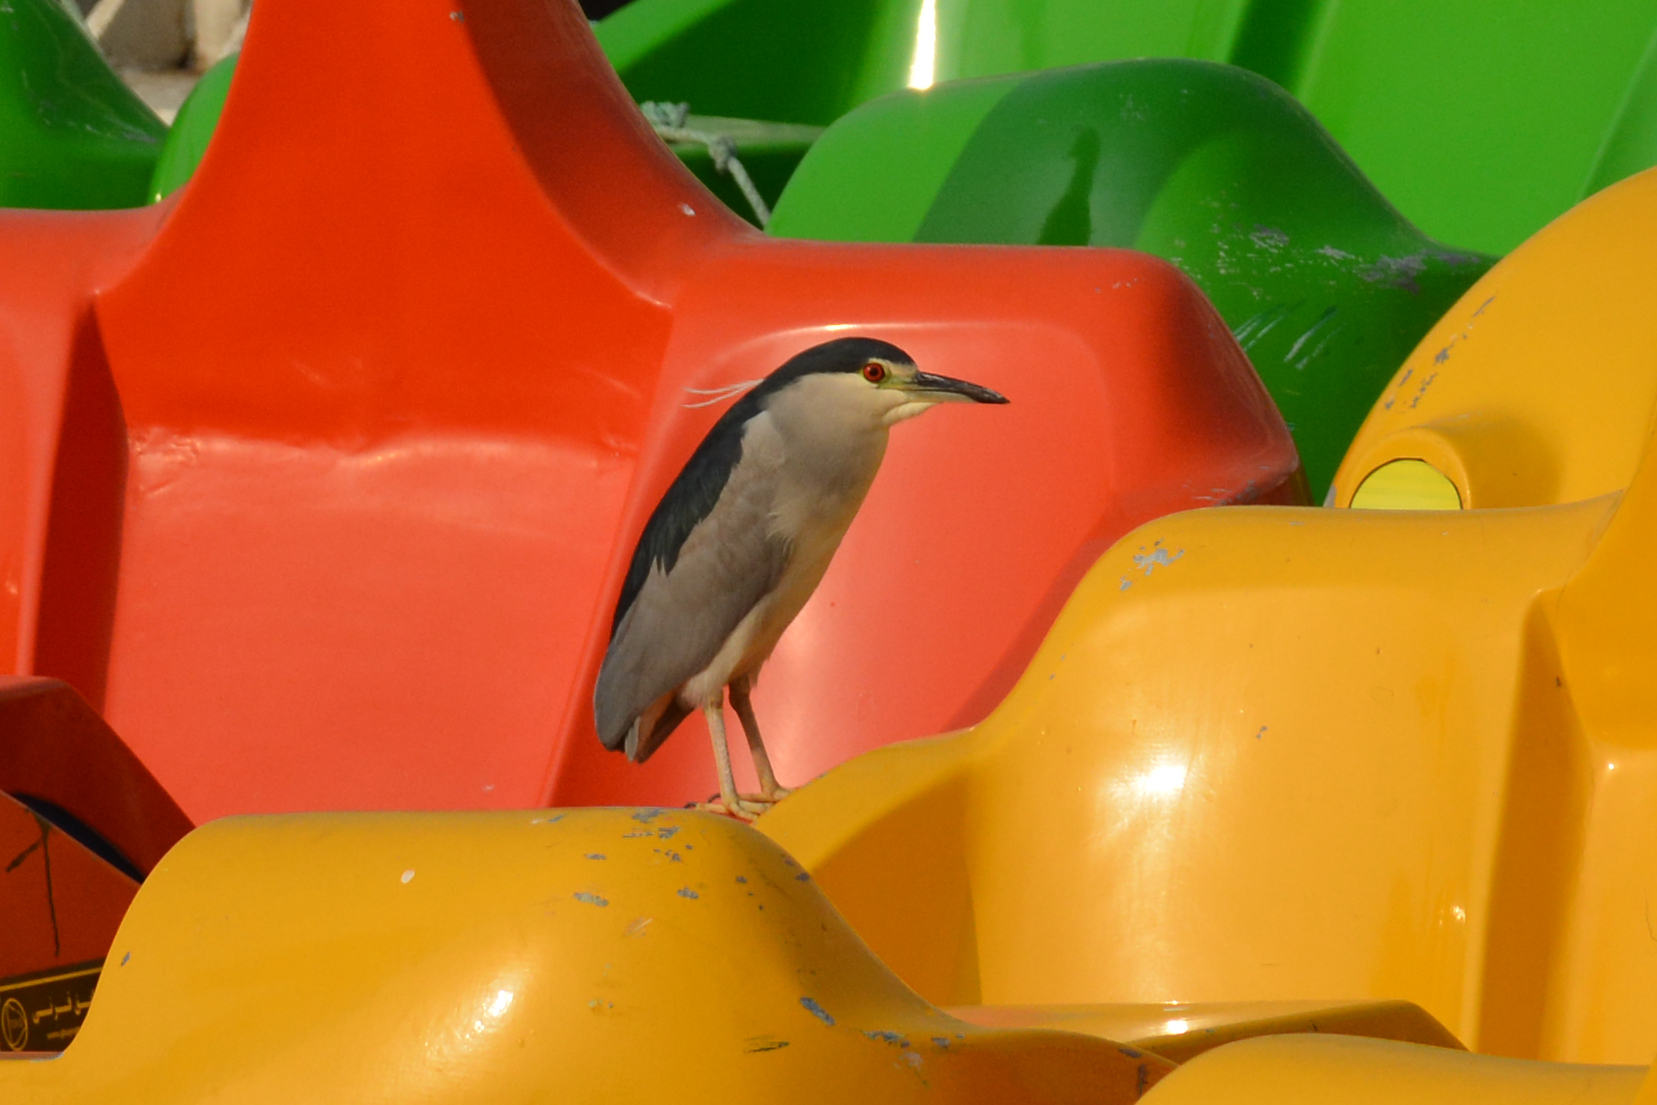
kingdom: Animalia
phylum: Chordata
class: Aves
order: Pelecaniformes
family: Ardeidae
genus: Nycticorax
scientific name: Nycticorax nycticorax
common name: Black-crowned night heron
